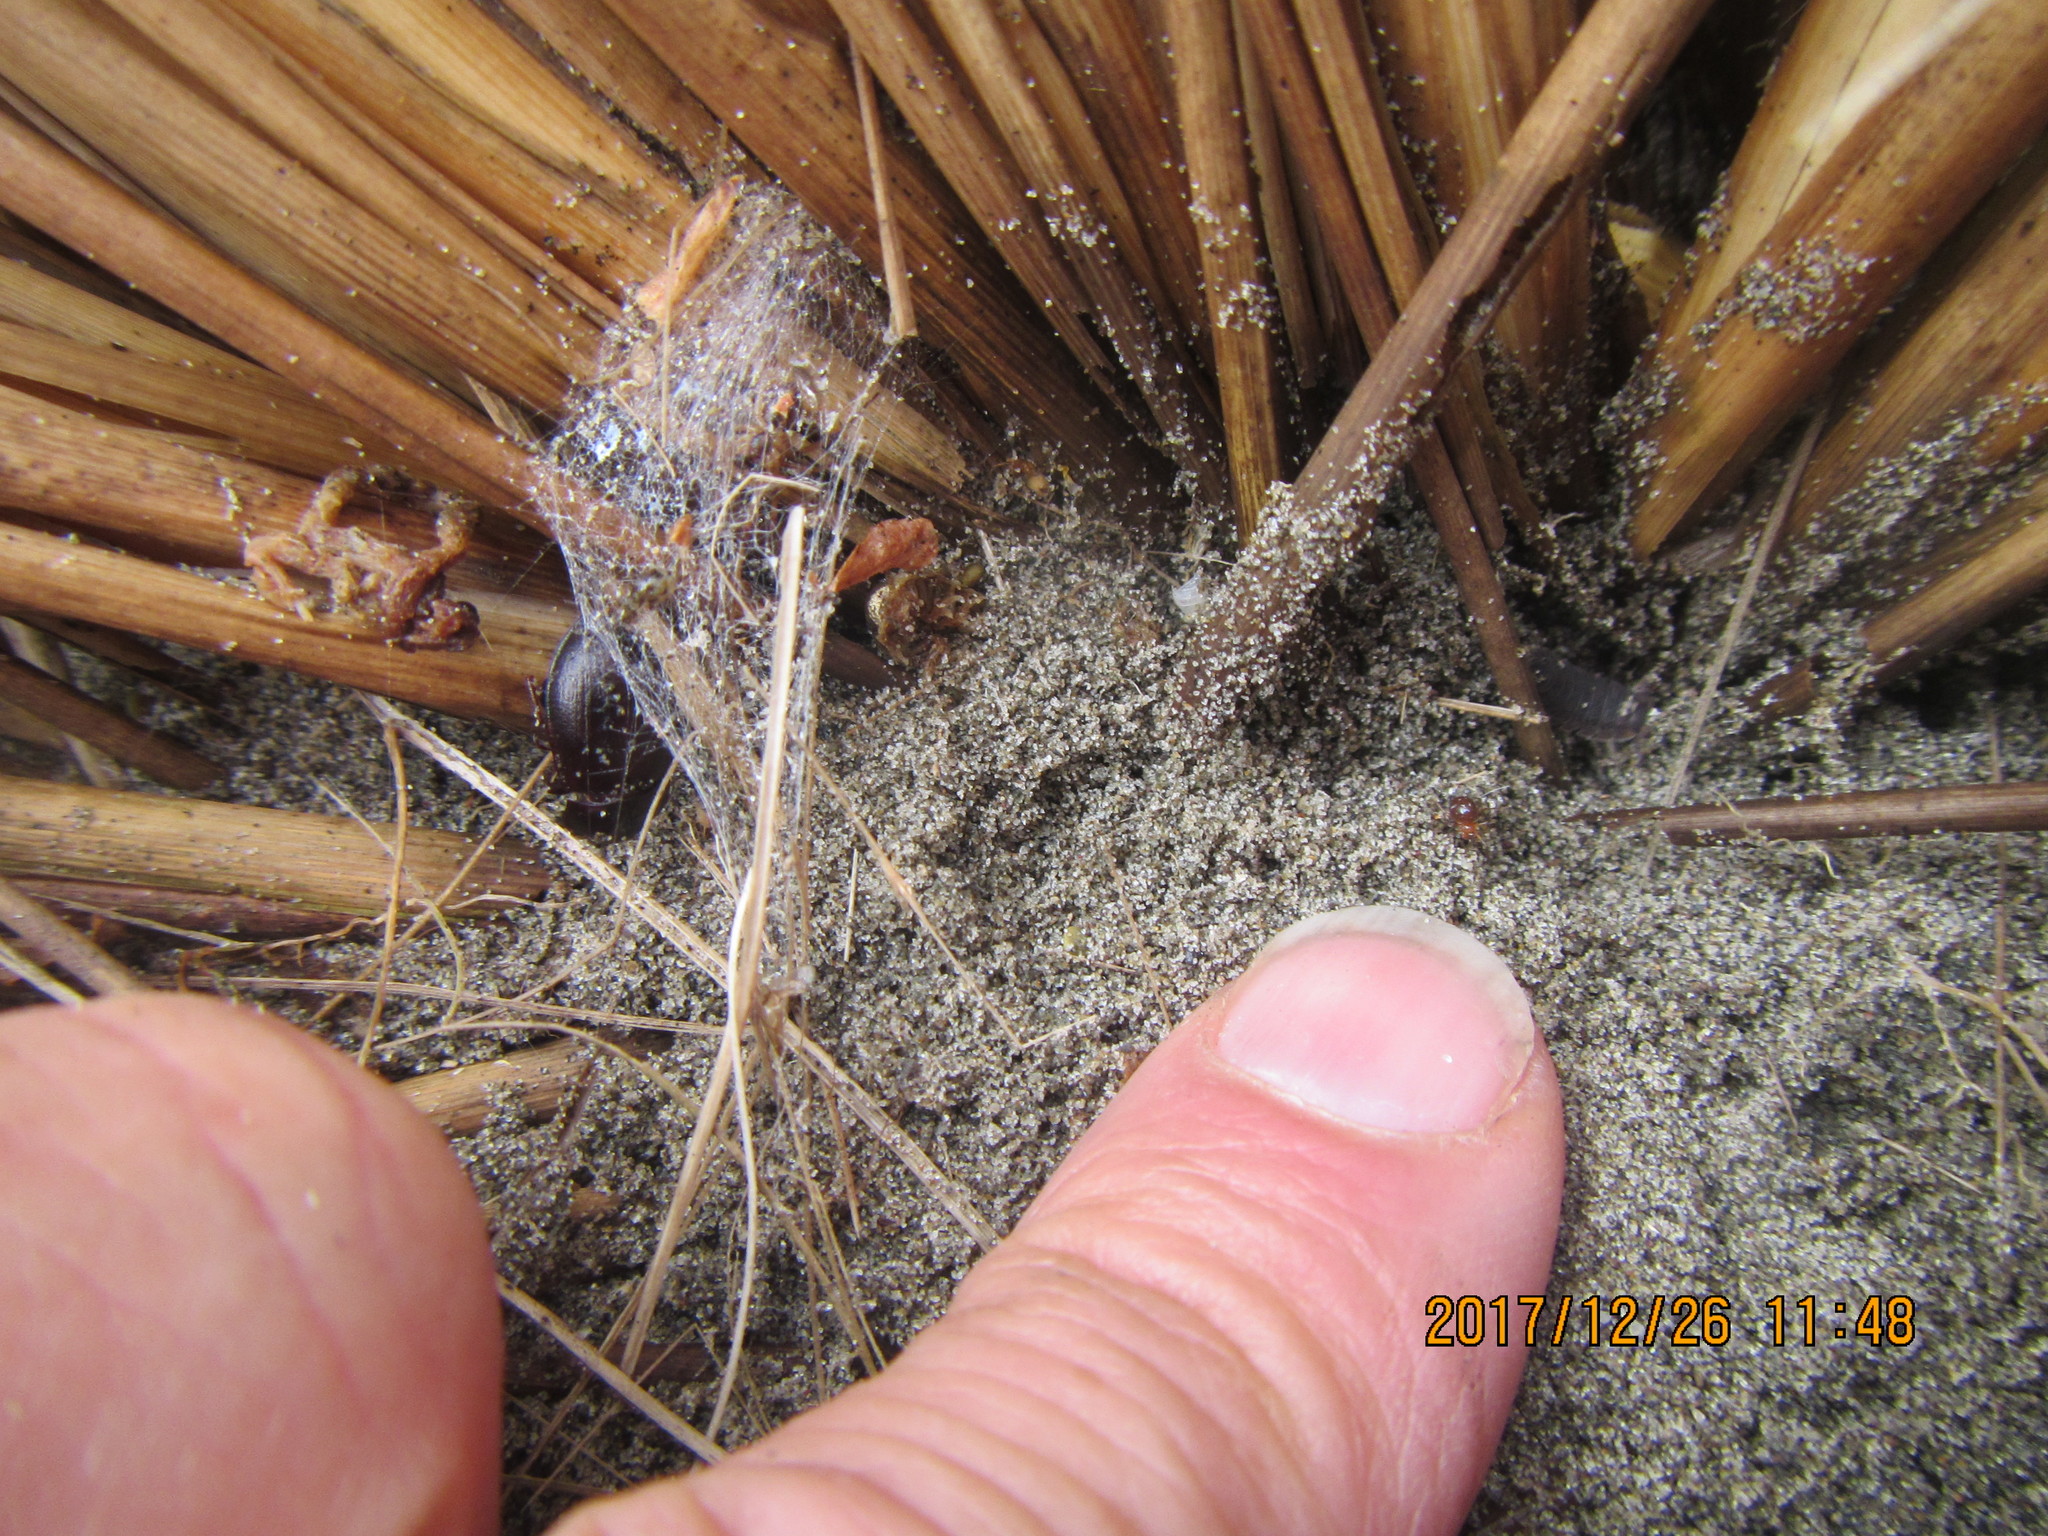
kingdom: Animalia
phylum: Arthropoda
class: Arachnida
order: Araneae
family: Thomisidae
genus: Sidymella
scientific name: Sidymella trapezia
